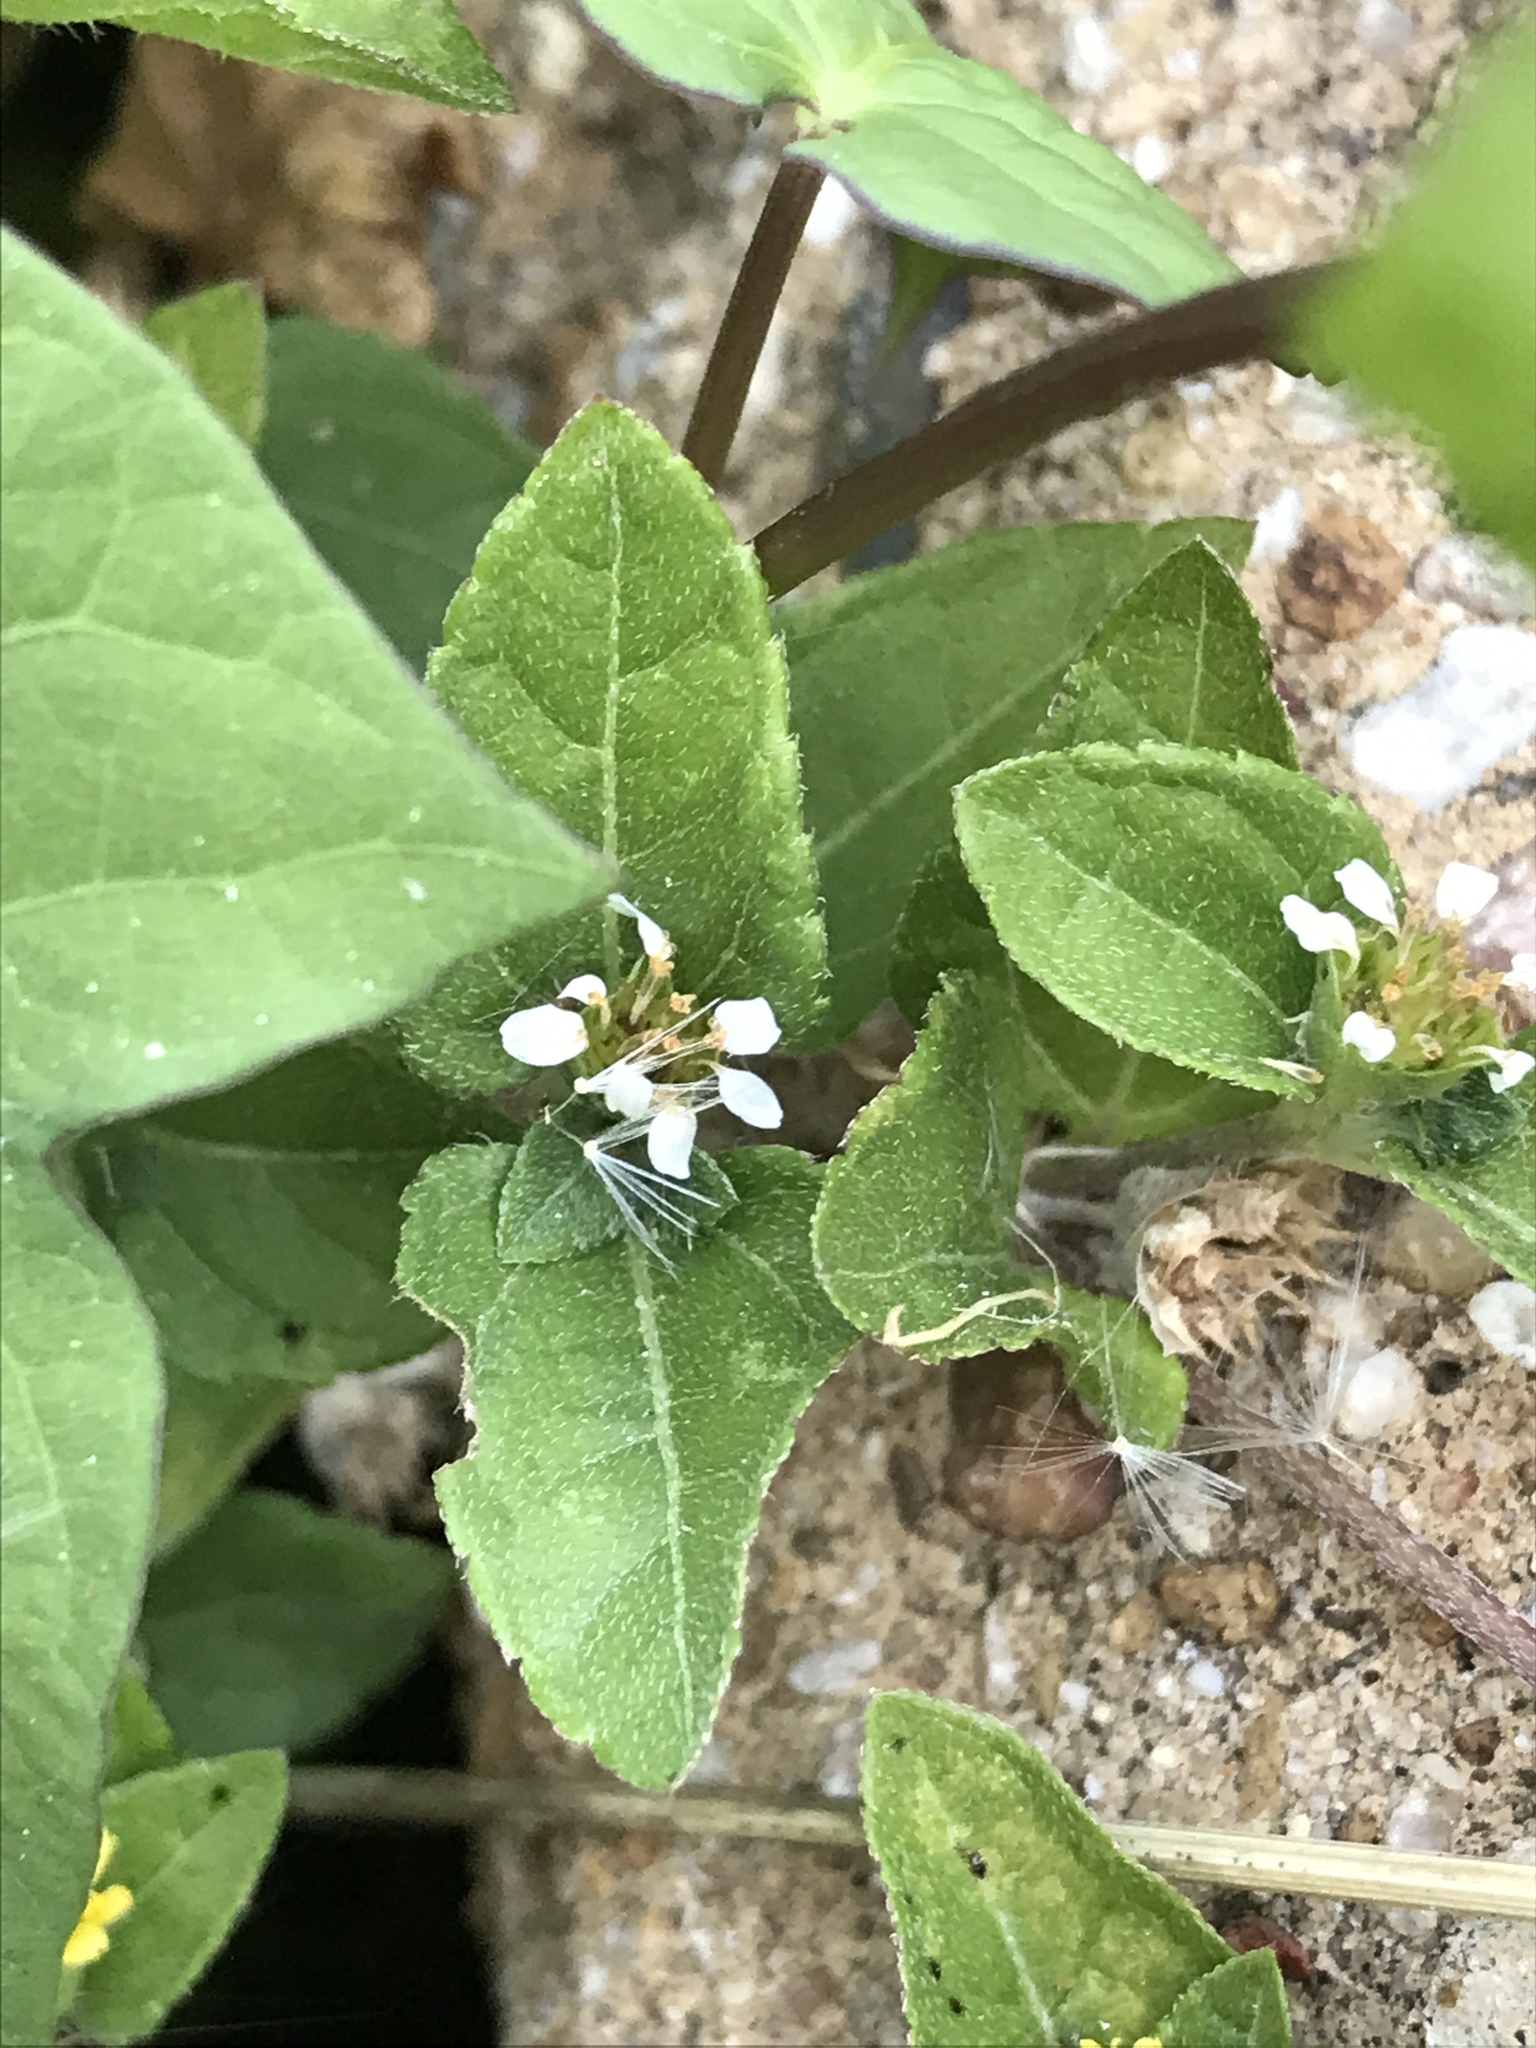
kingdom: Plantae
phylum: Tracheophyta
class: Magnoliopsida
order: Asterales
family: Asteraceae
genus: Calyptocarpus
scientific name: Calyptocarpus vialis
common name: Straggler daisy
